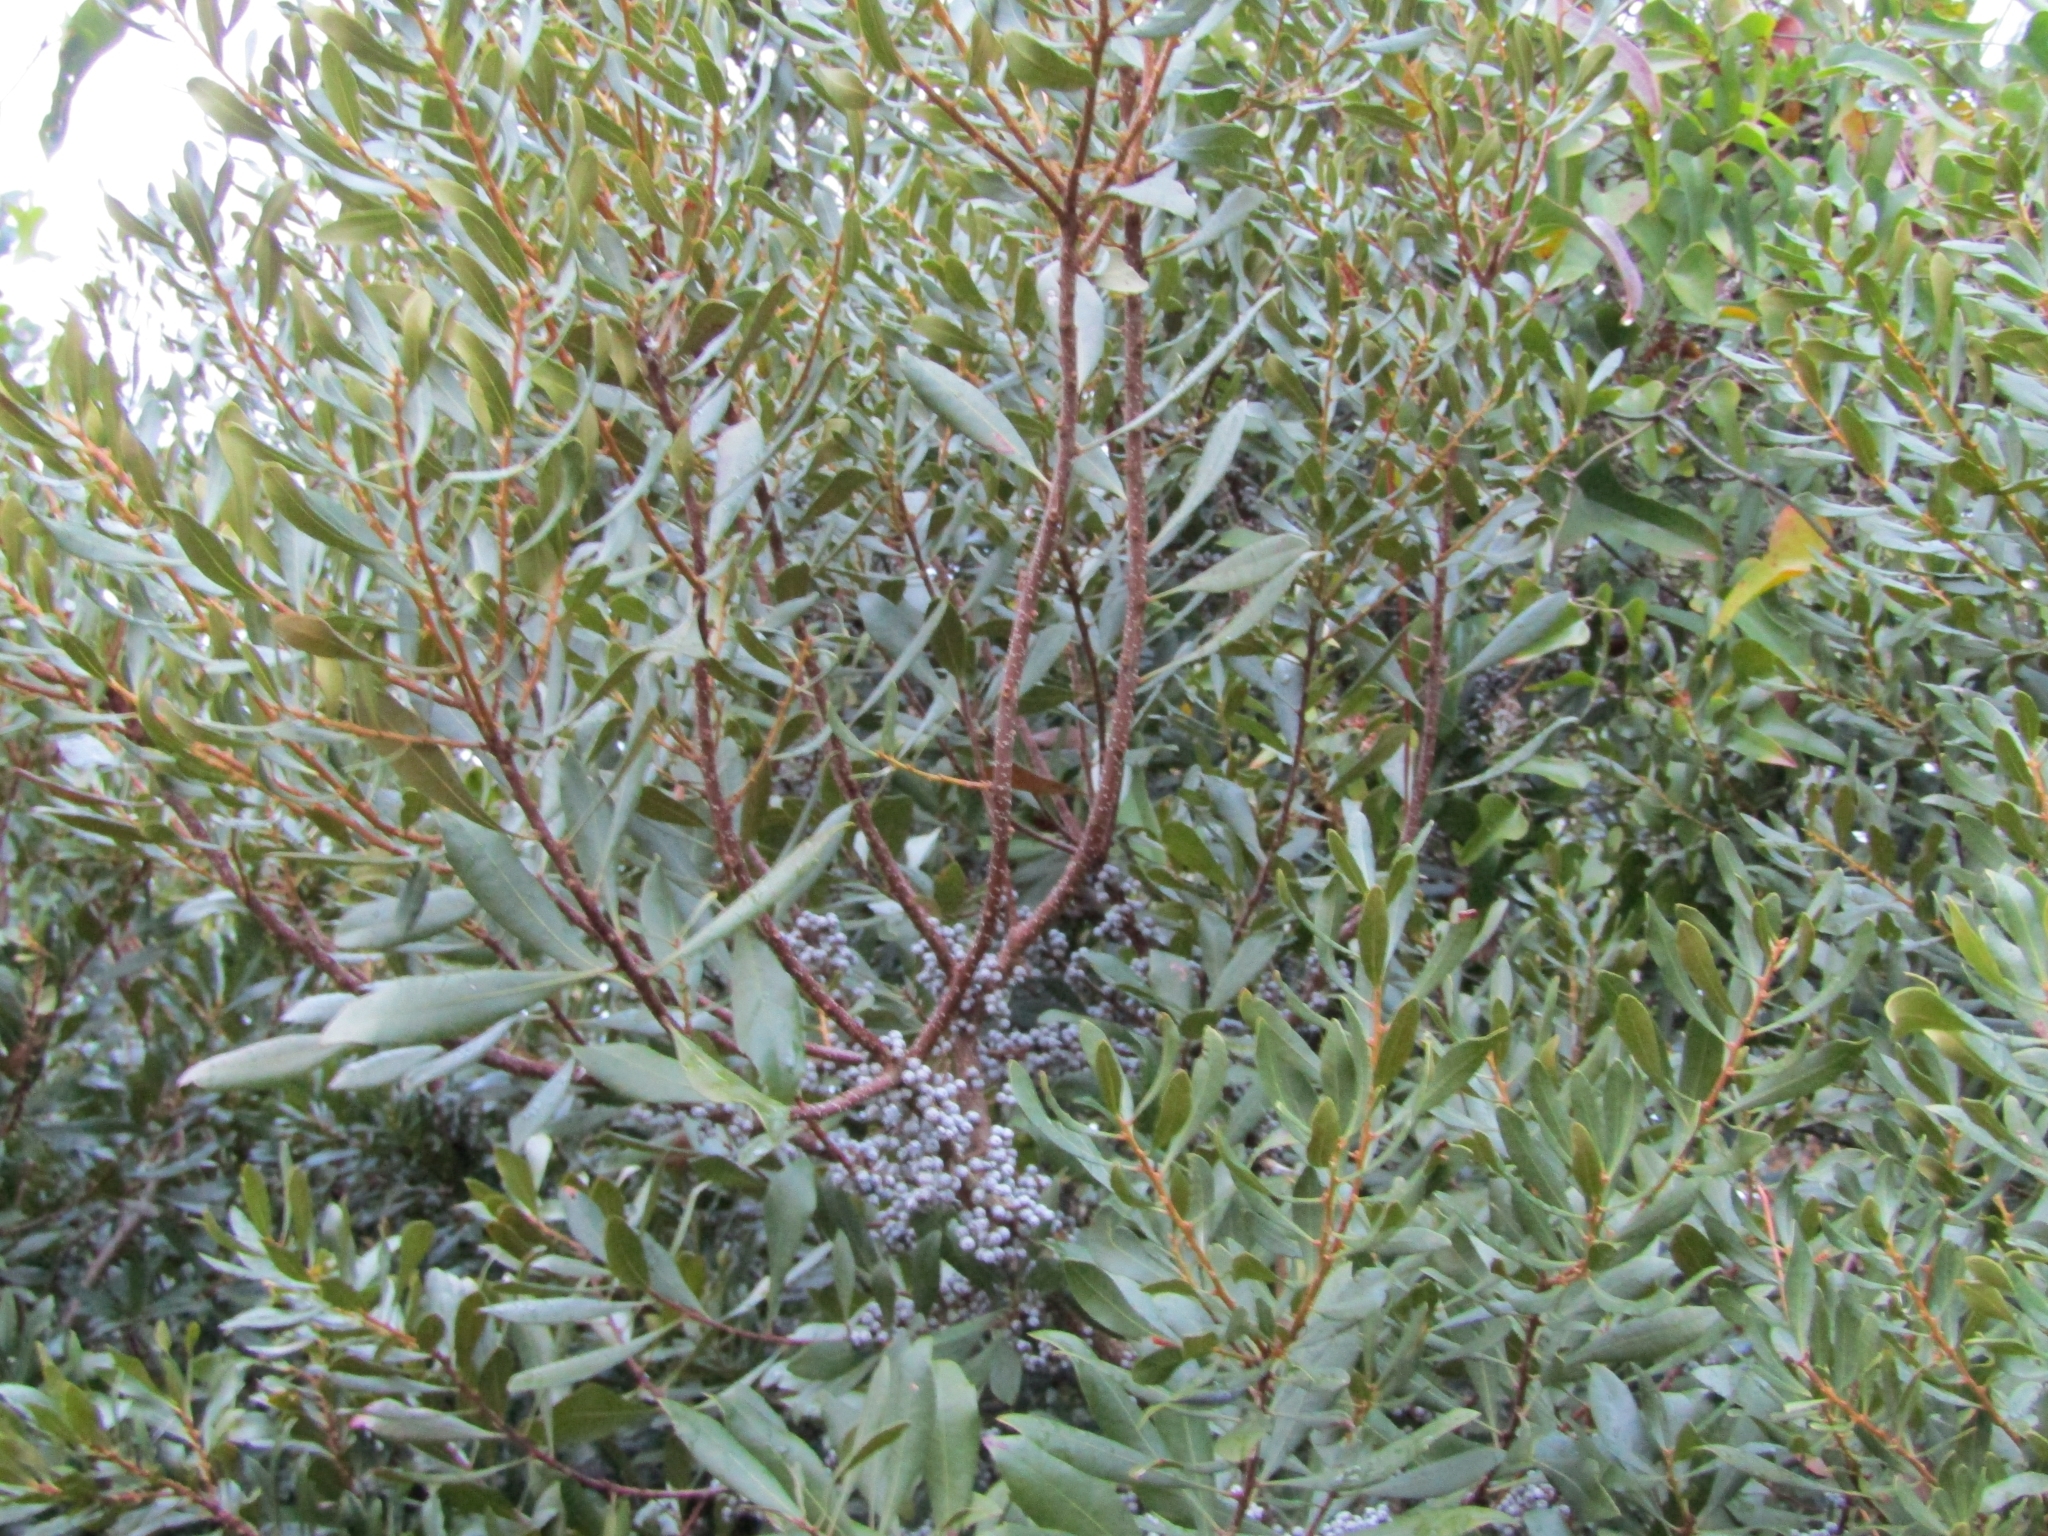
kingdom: Plantae
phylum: Tracheophyta
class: Magnoliopsida
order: Fagales
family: Myricaceae
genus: Morella
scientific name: Morella cerifera
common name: Wax myrtle
